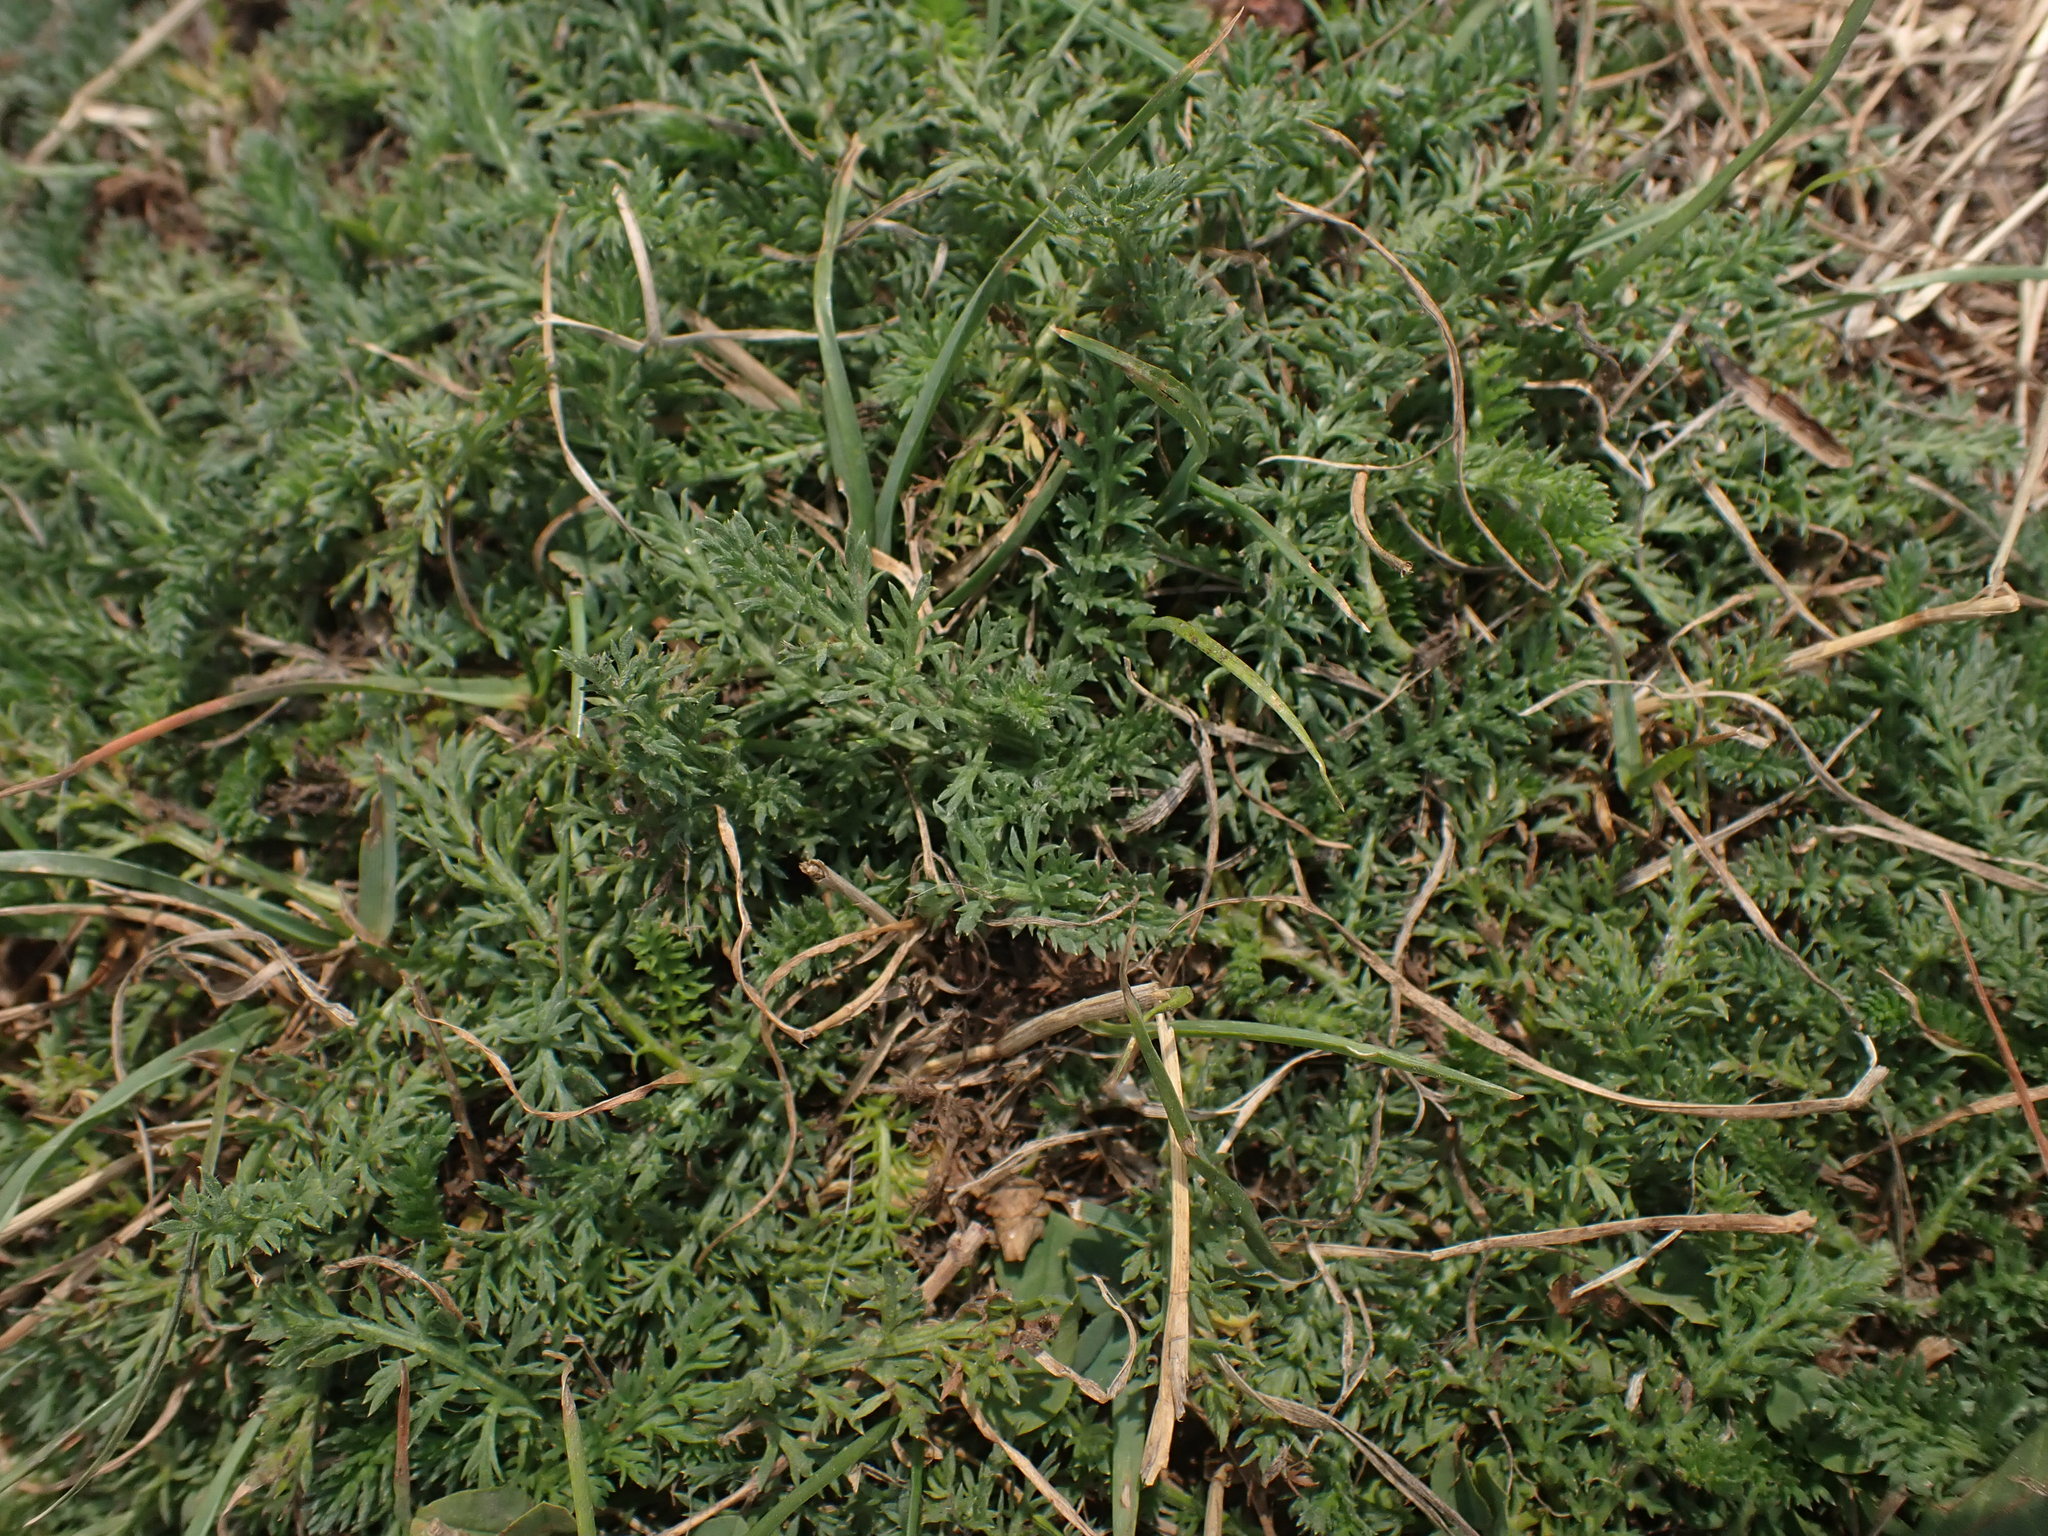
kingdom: Plantae
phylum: Tracheophyta
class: Magnoliopsida
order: Asterales
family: Asteraceae
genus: Achillea
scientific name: Achillea millefolium
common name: Yarrow
